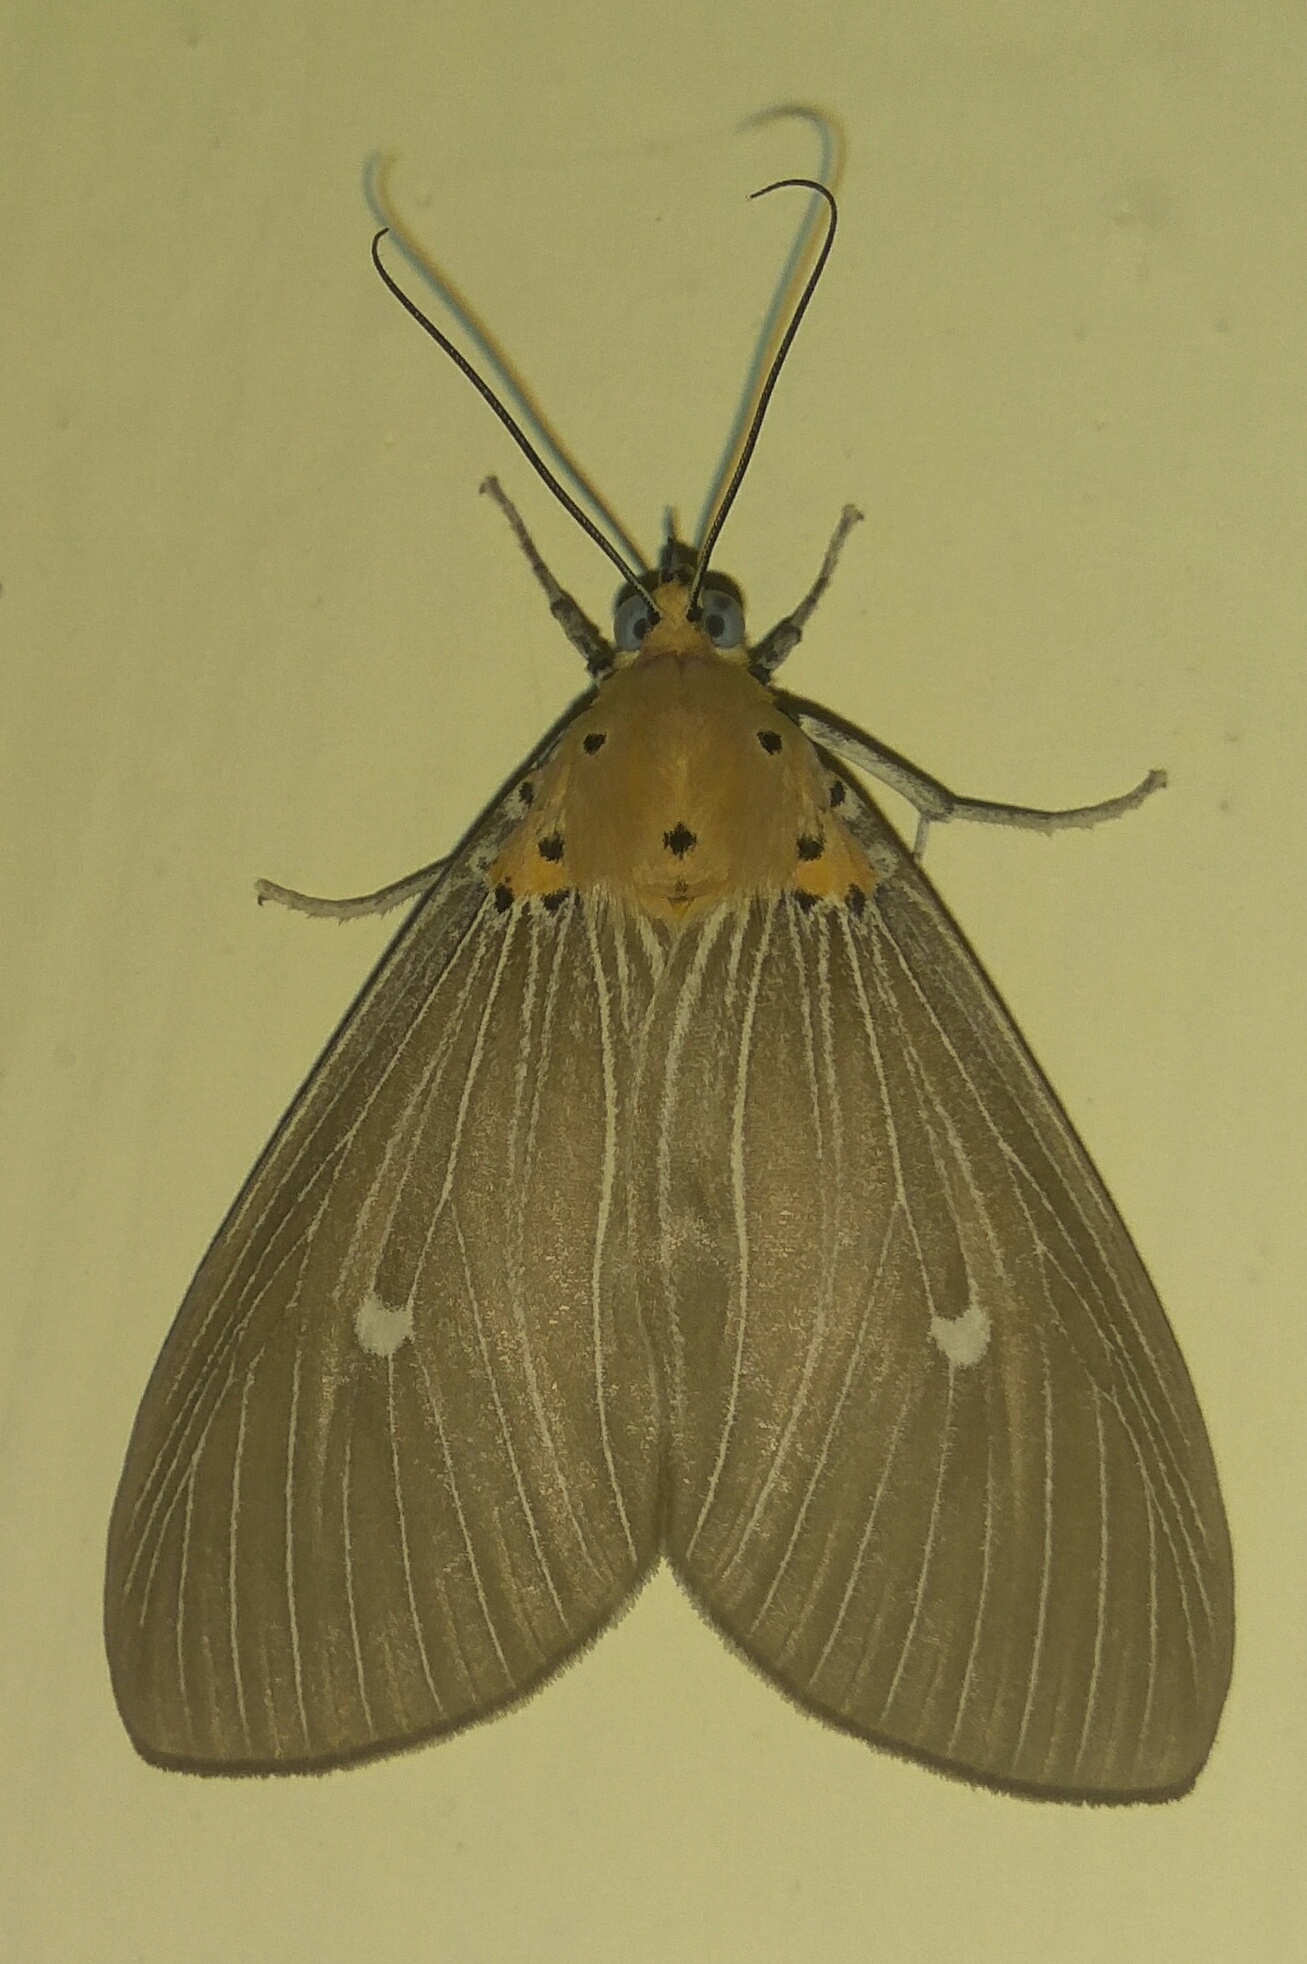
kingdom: Animalia
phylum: Arthropoda
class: Insecta
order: Lepidoptera
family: Erebidae
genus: Asota
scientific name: Asota caricae
